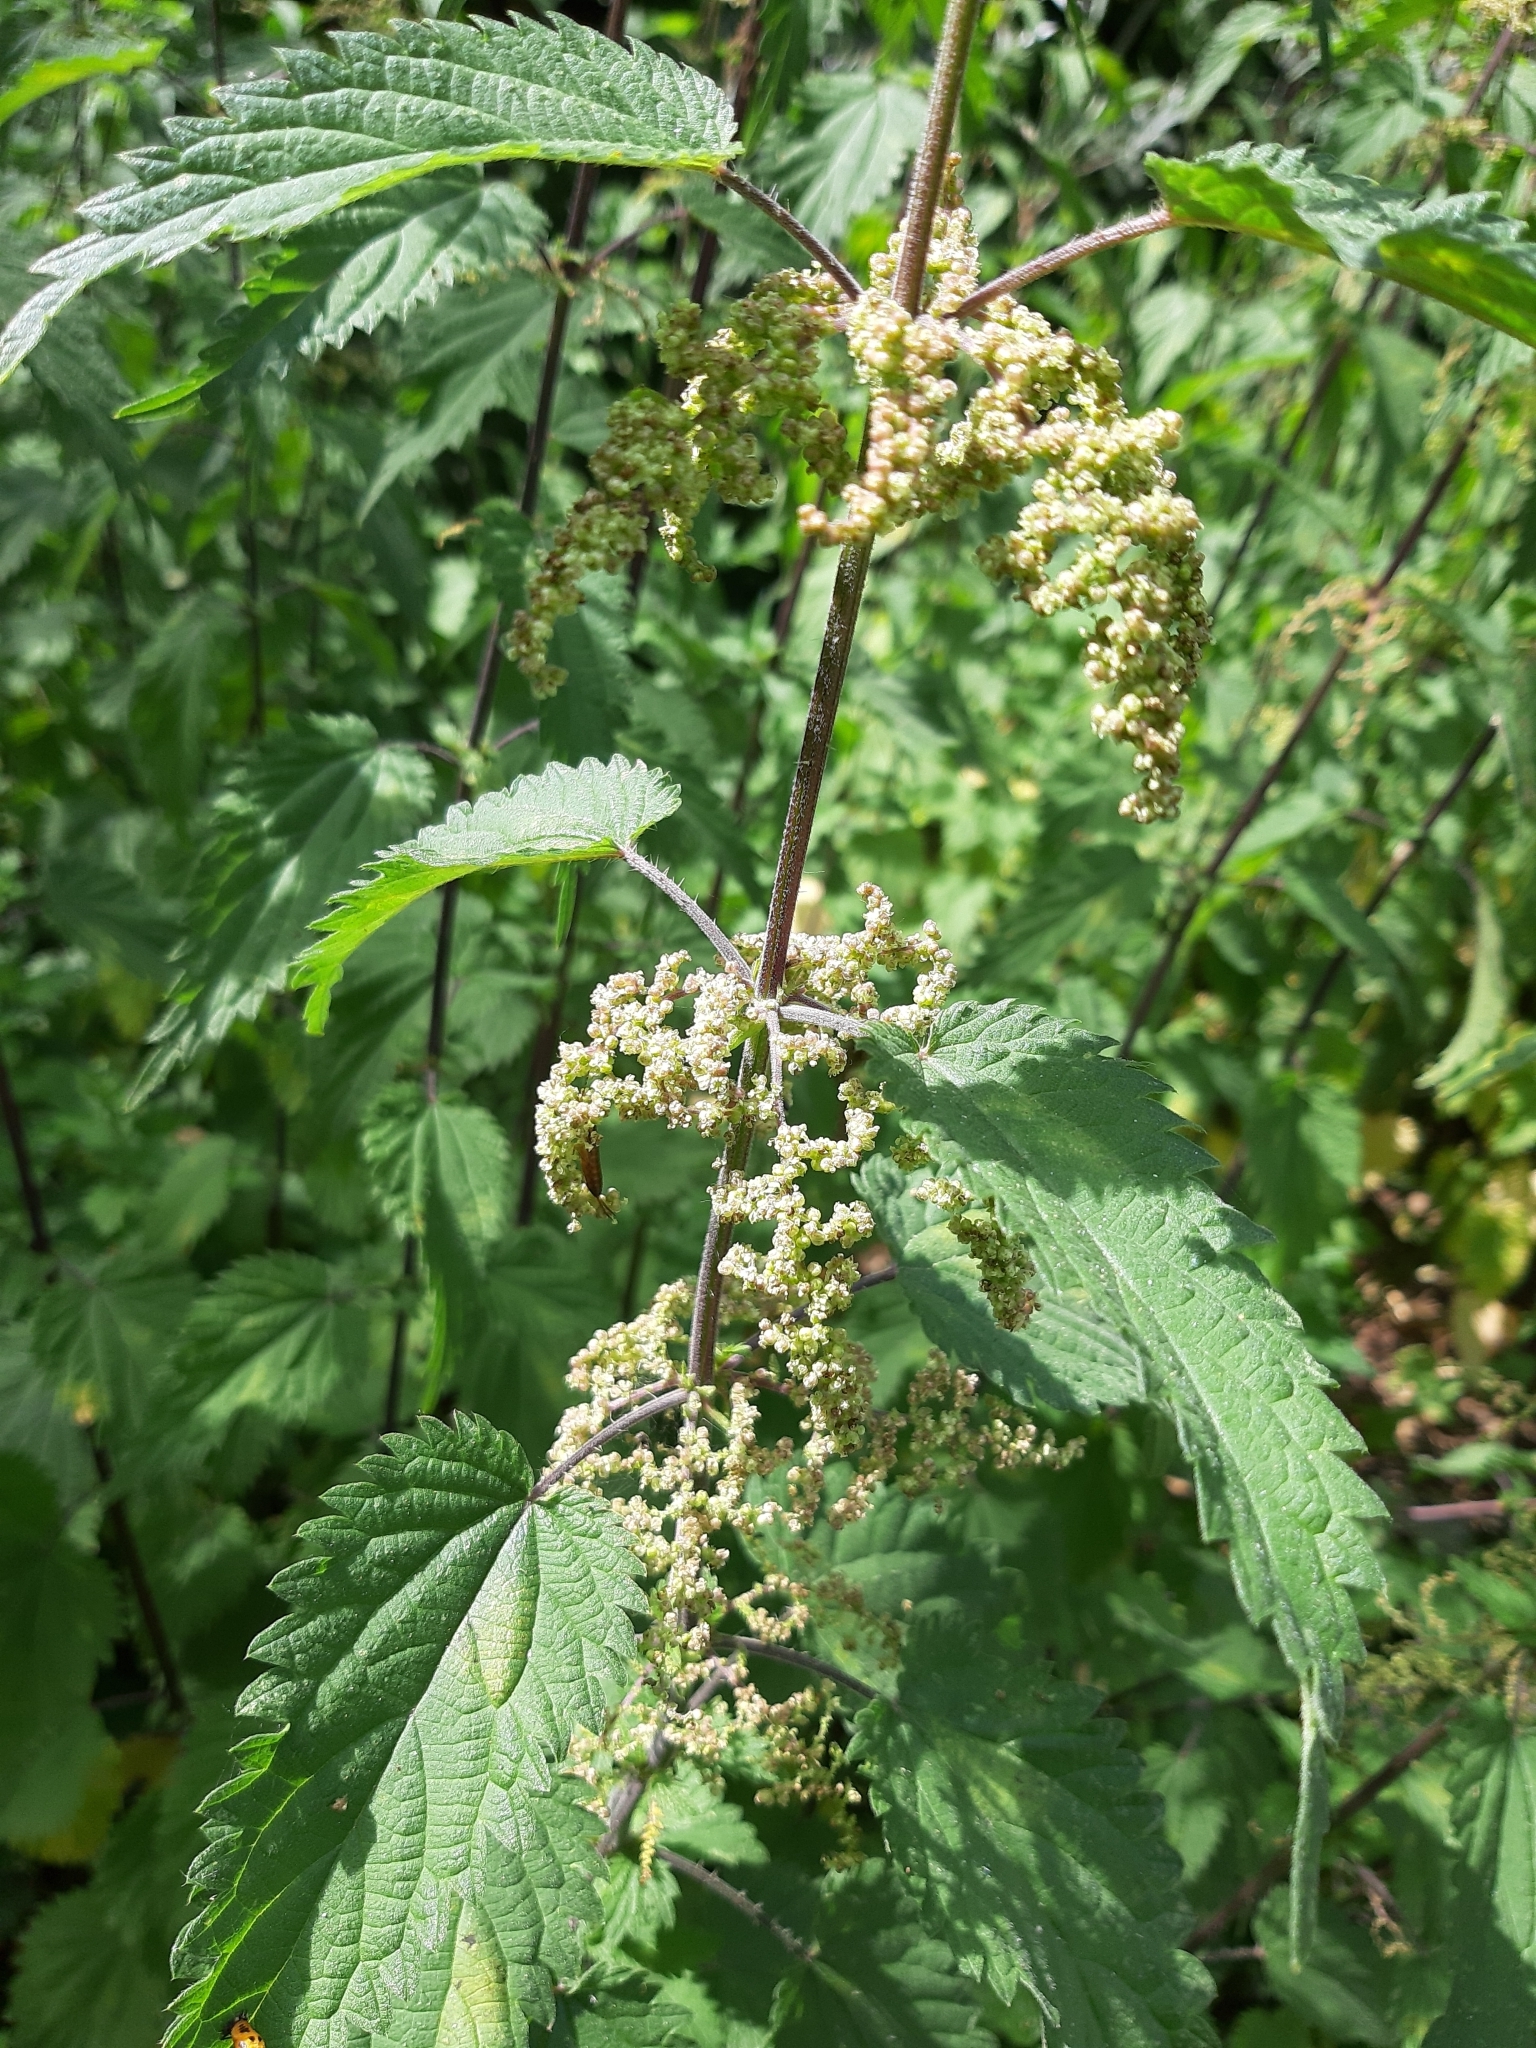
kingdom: Plantae
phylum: Tracheophyta
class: Magnoliopsida
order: Rosales
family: Urticaceae
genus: Urtica
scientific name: Urtica dioica
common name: Common nettle
